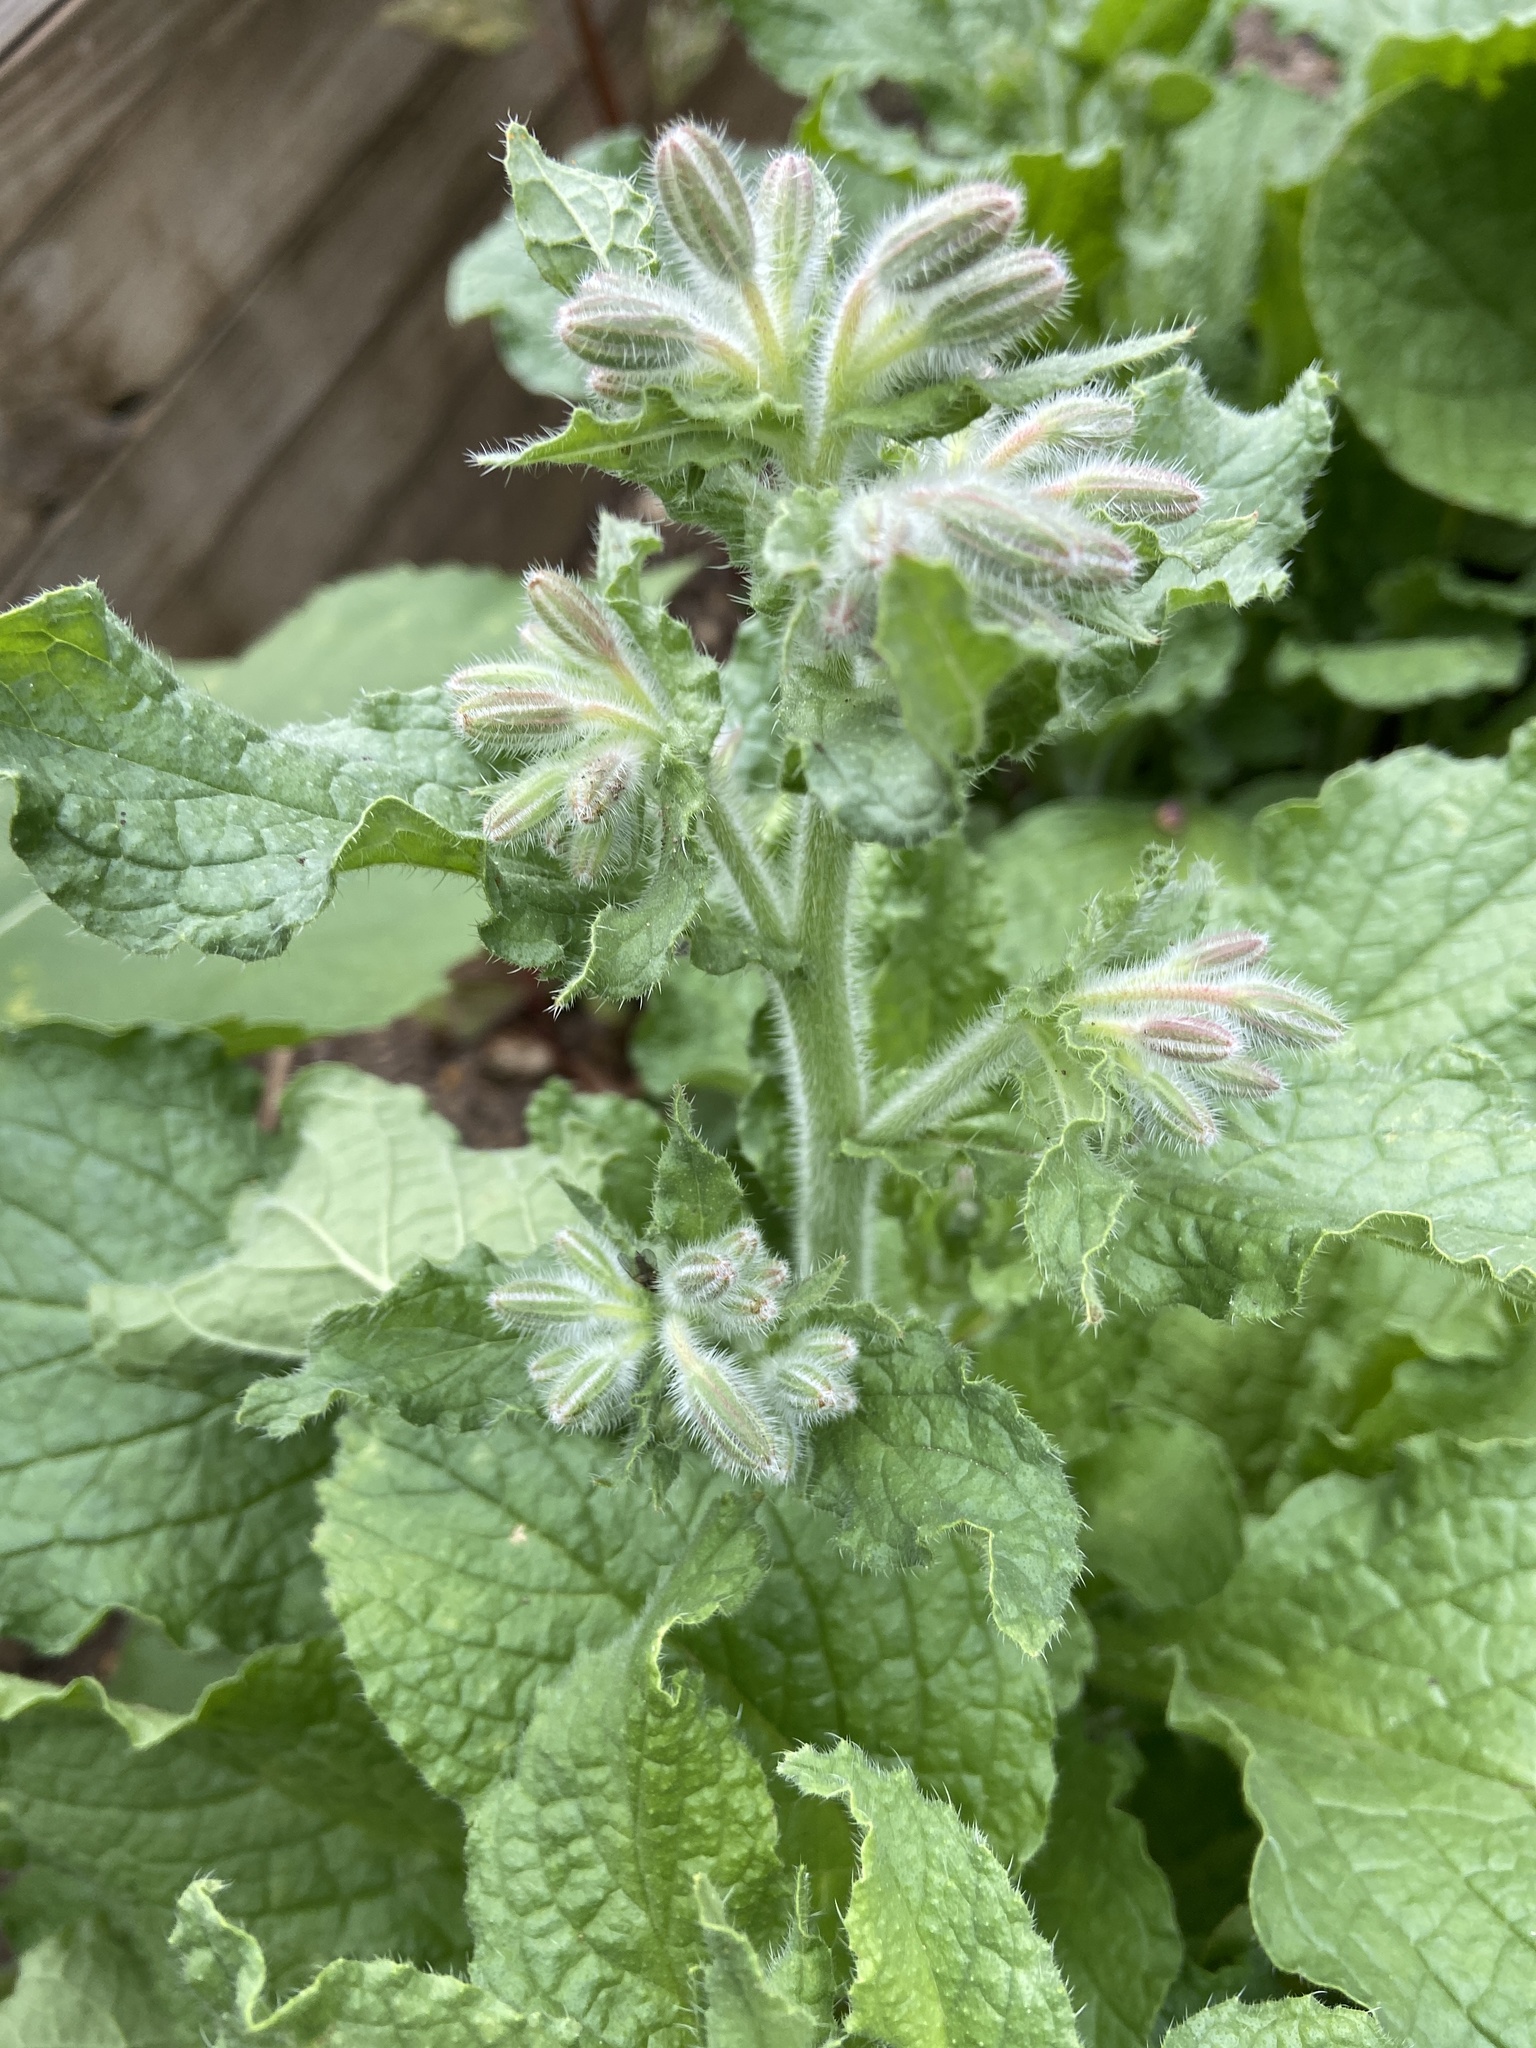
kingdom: Plantae
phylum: Tracheophyta
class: Magnoliopsida
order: Boraginales
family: Boraginaceae
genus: Borago
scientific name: Borago officinalis
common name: Borage
